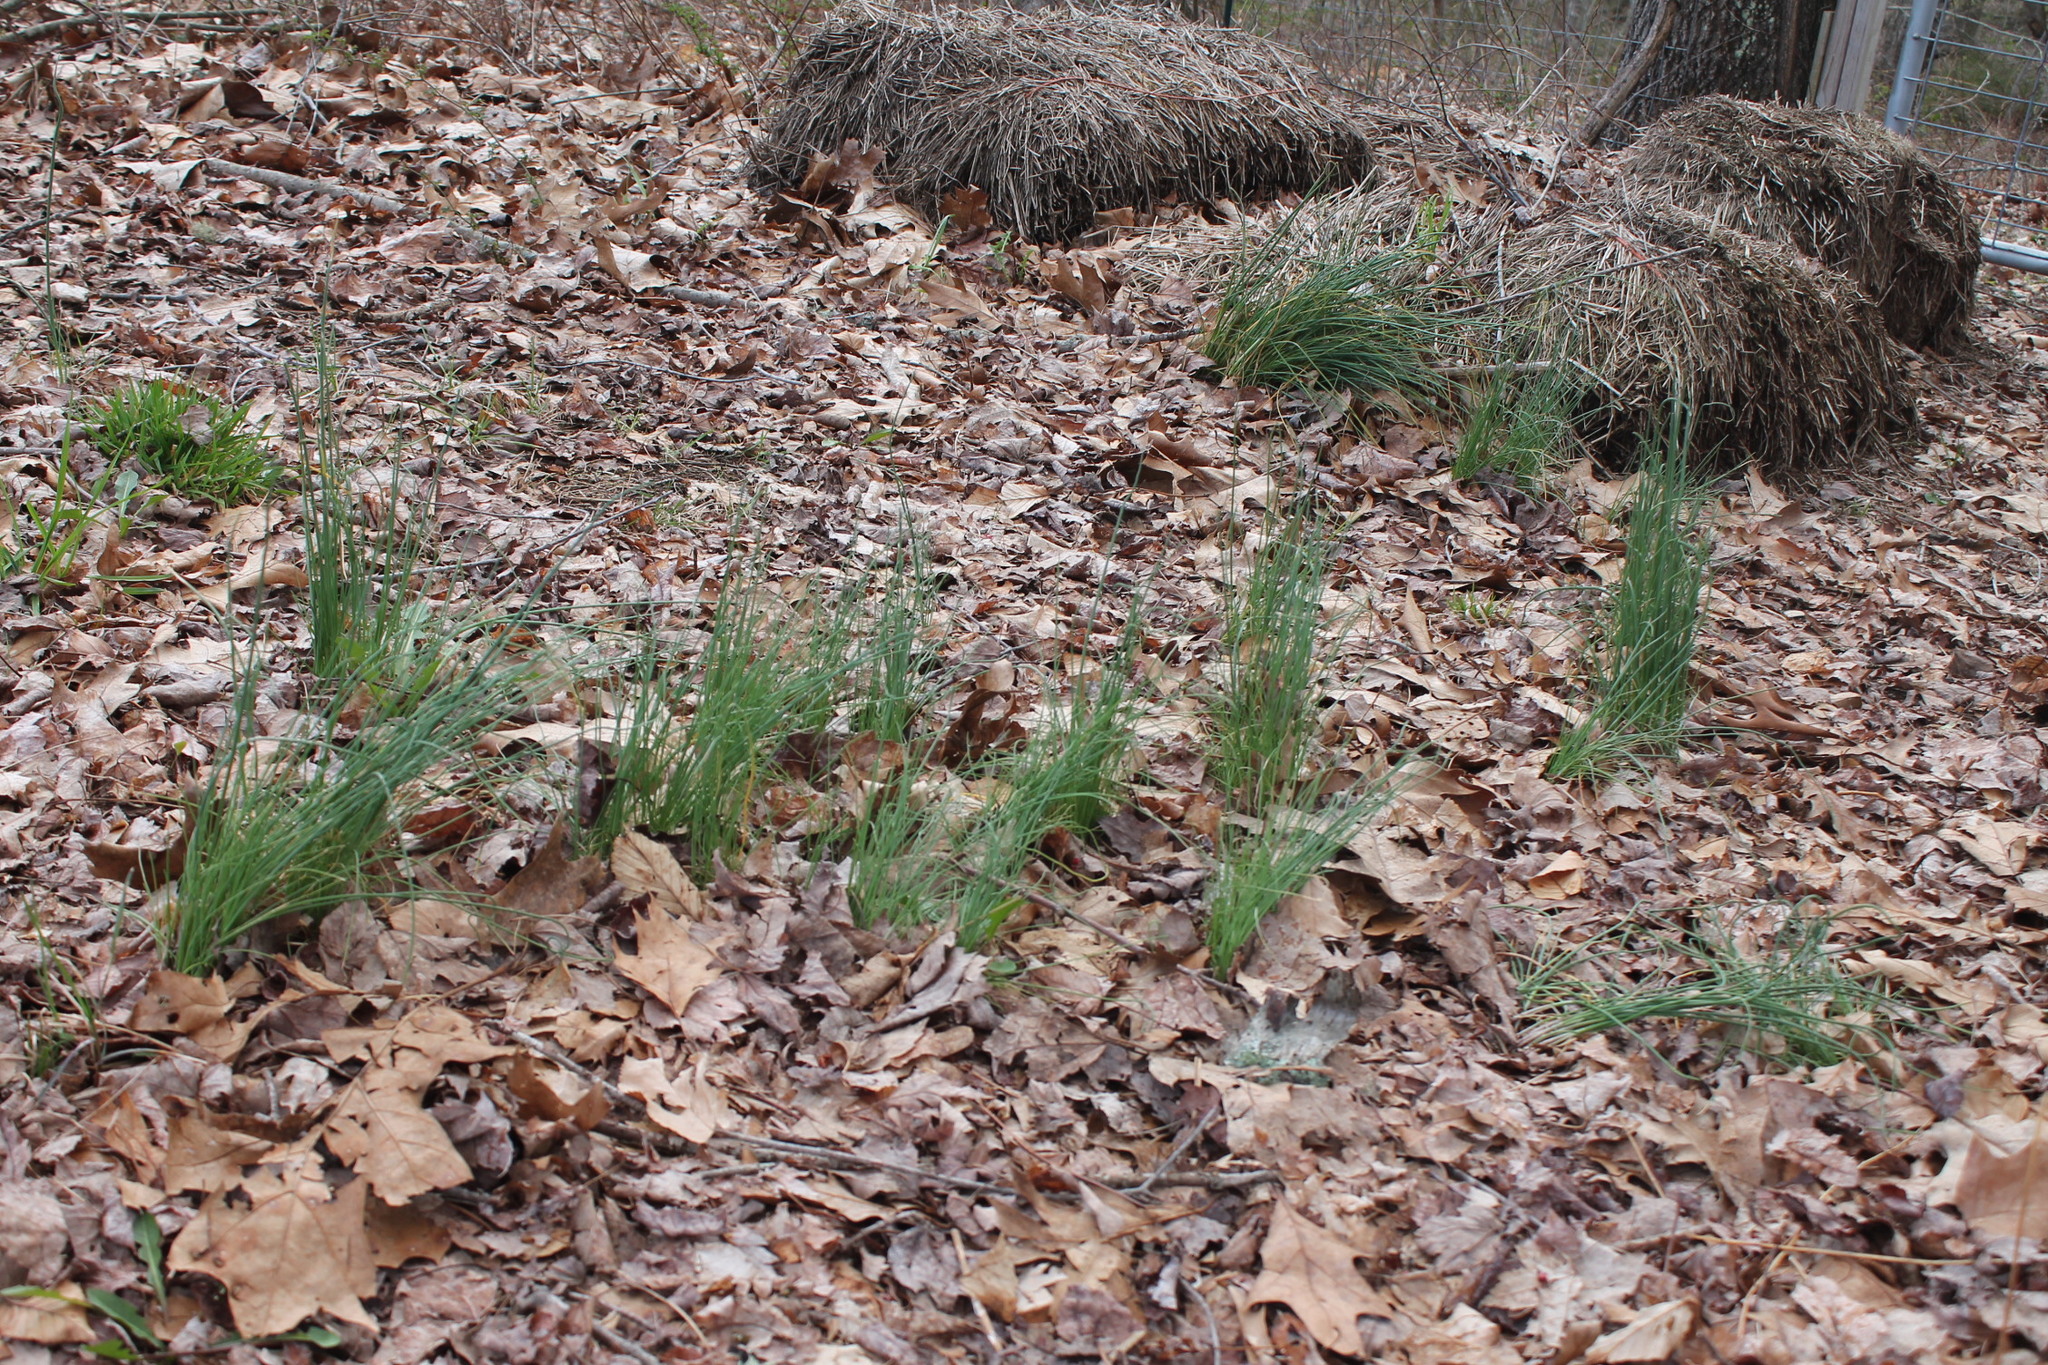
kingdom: Plantae
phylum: Tracheophyta
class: Liliopsida
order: Asparagales
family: Amaryllidaceae
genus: Allium
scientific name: Allium vineale
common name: Crow garlic
